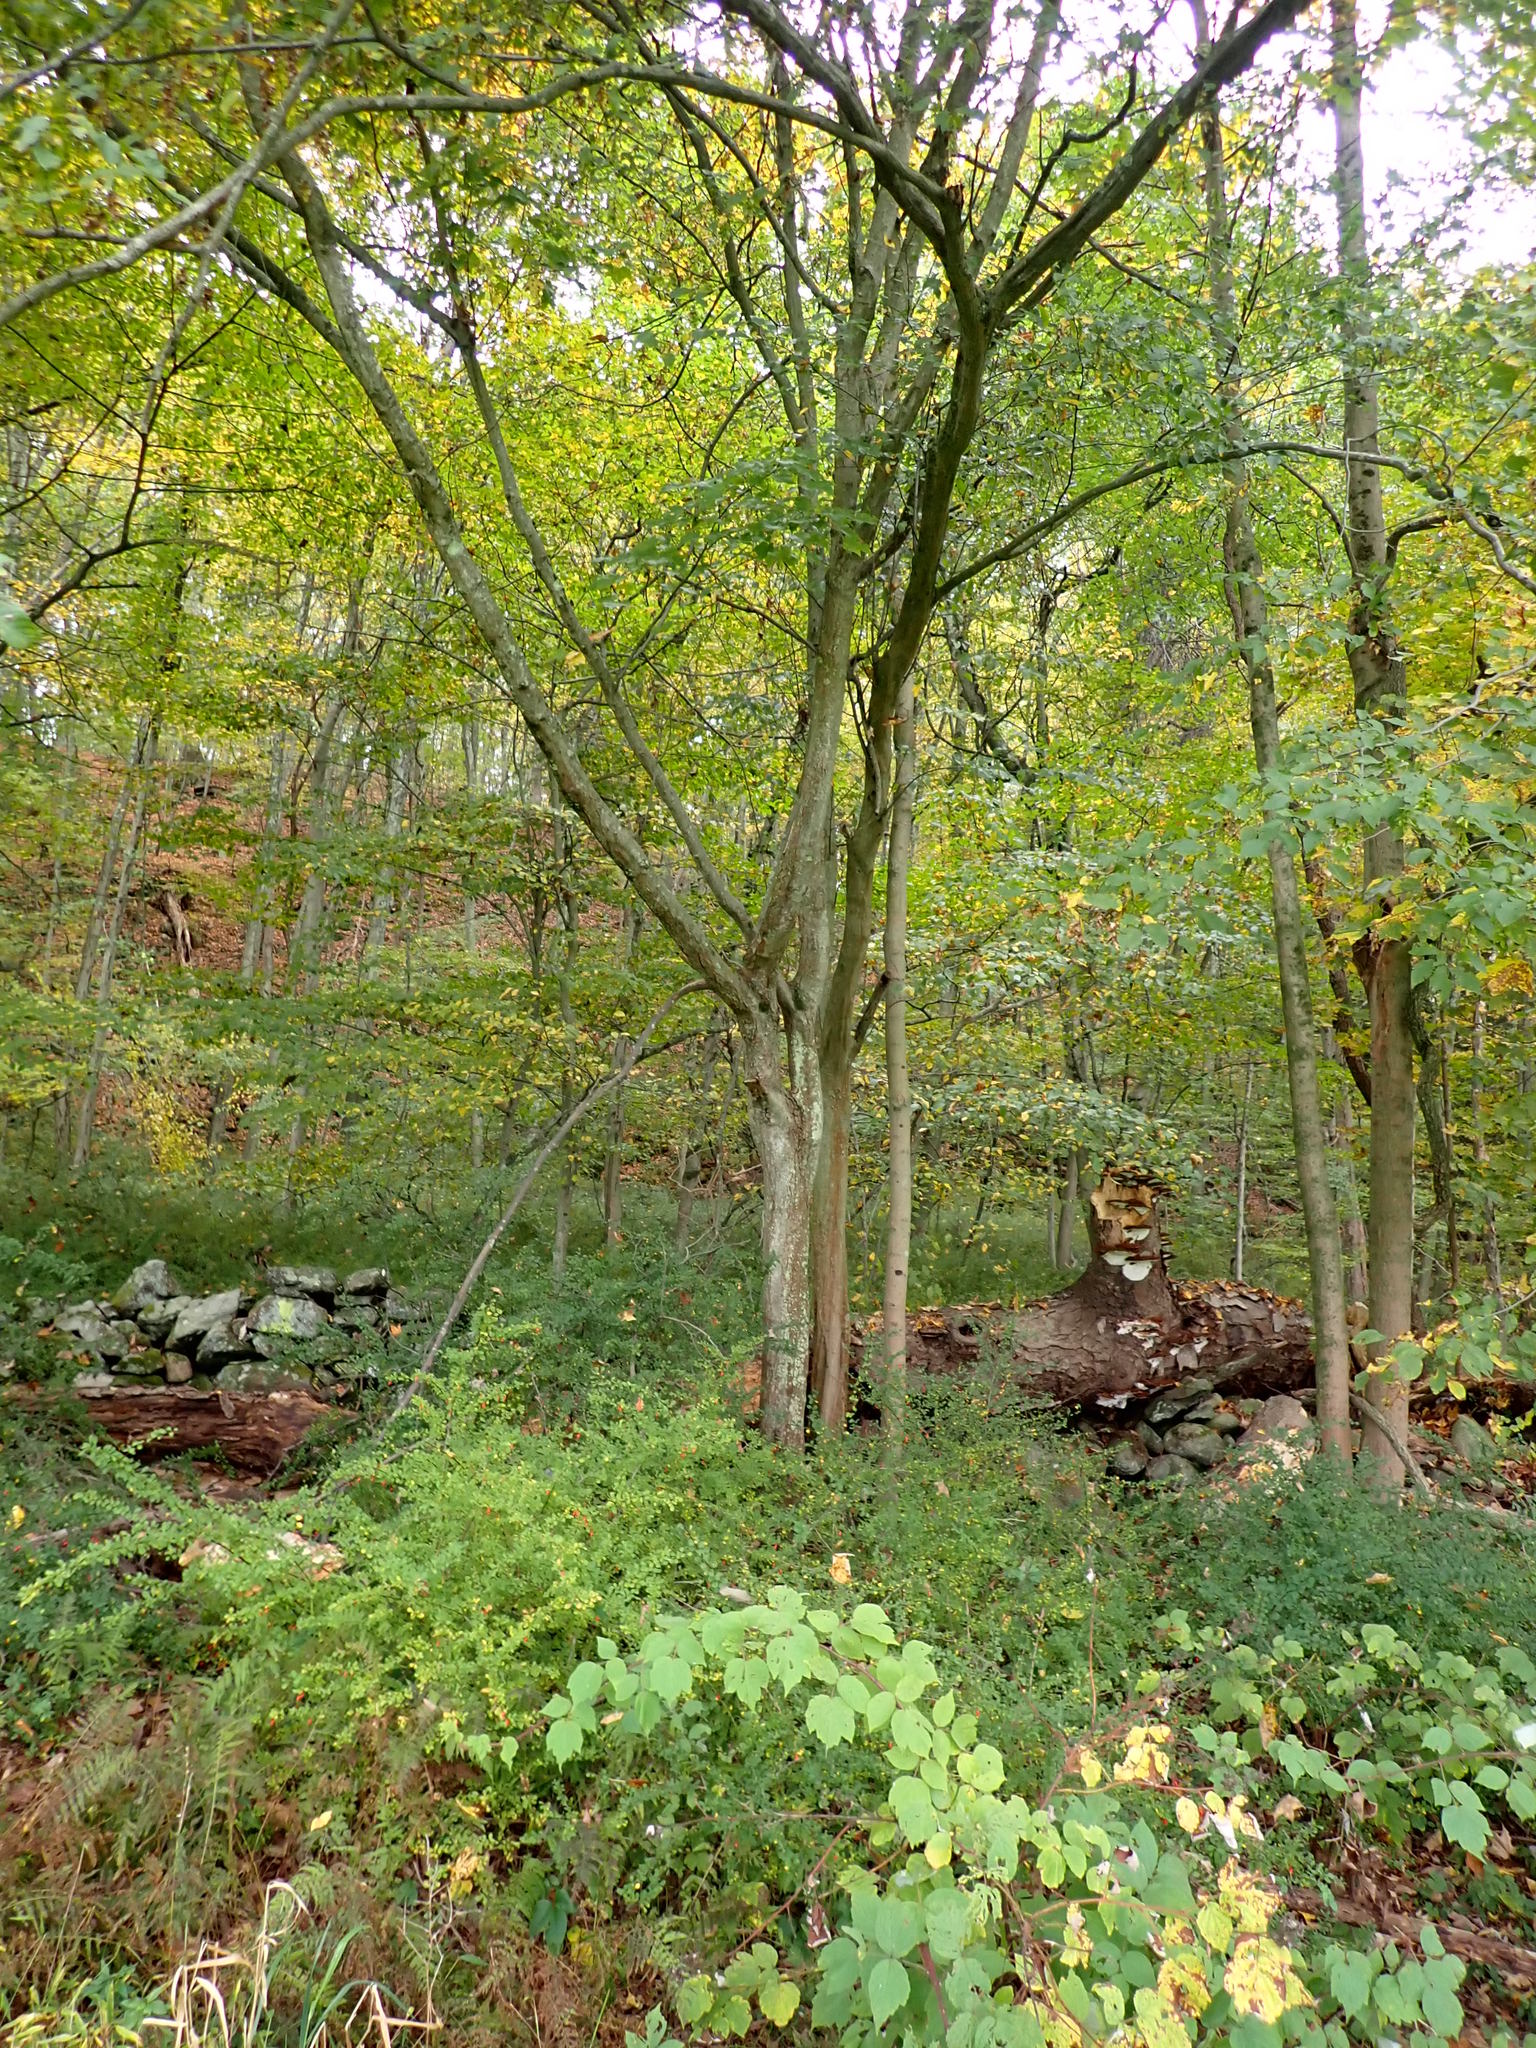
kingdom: Plantae
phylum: Tracheophyta
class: Magnoliopsida
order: Fagales
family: Betulaceae
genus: Carpinus
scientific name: Carpinus caroliniana
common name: American hornbeam
